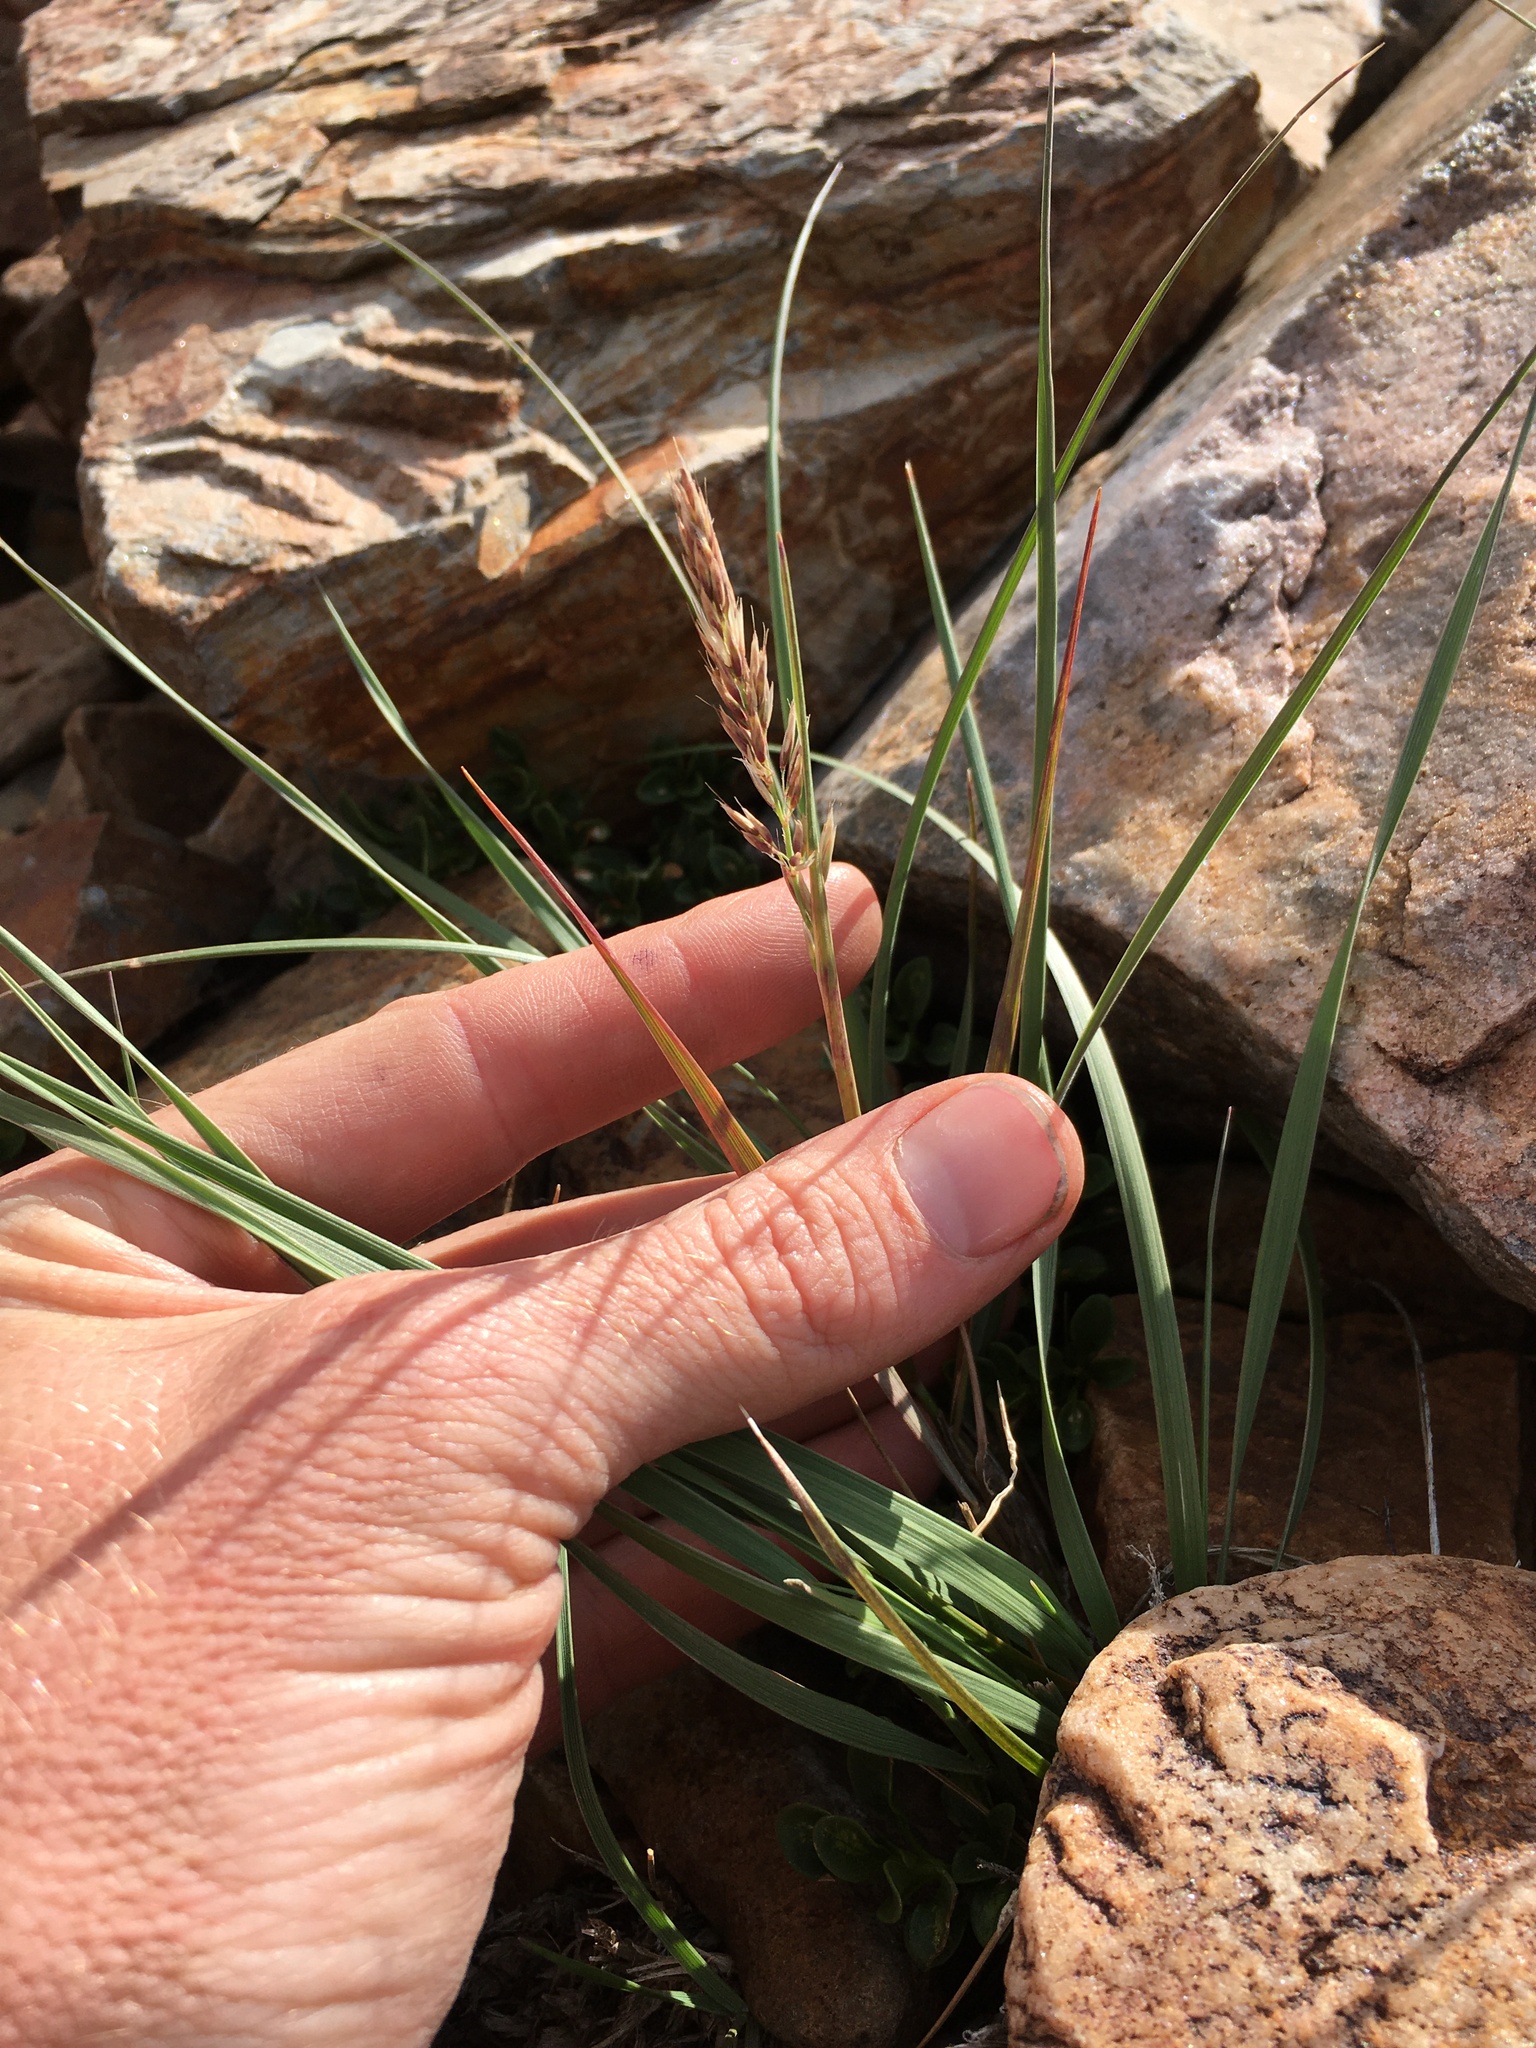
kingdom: Plantae
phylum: Tracheophyta
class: Liliopsida
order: Poales
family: Poaceae
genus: Calamagrostis
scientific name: Calamagrostis purpurascens
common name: Purple reedgrass
